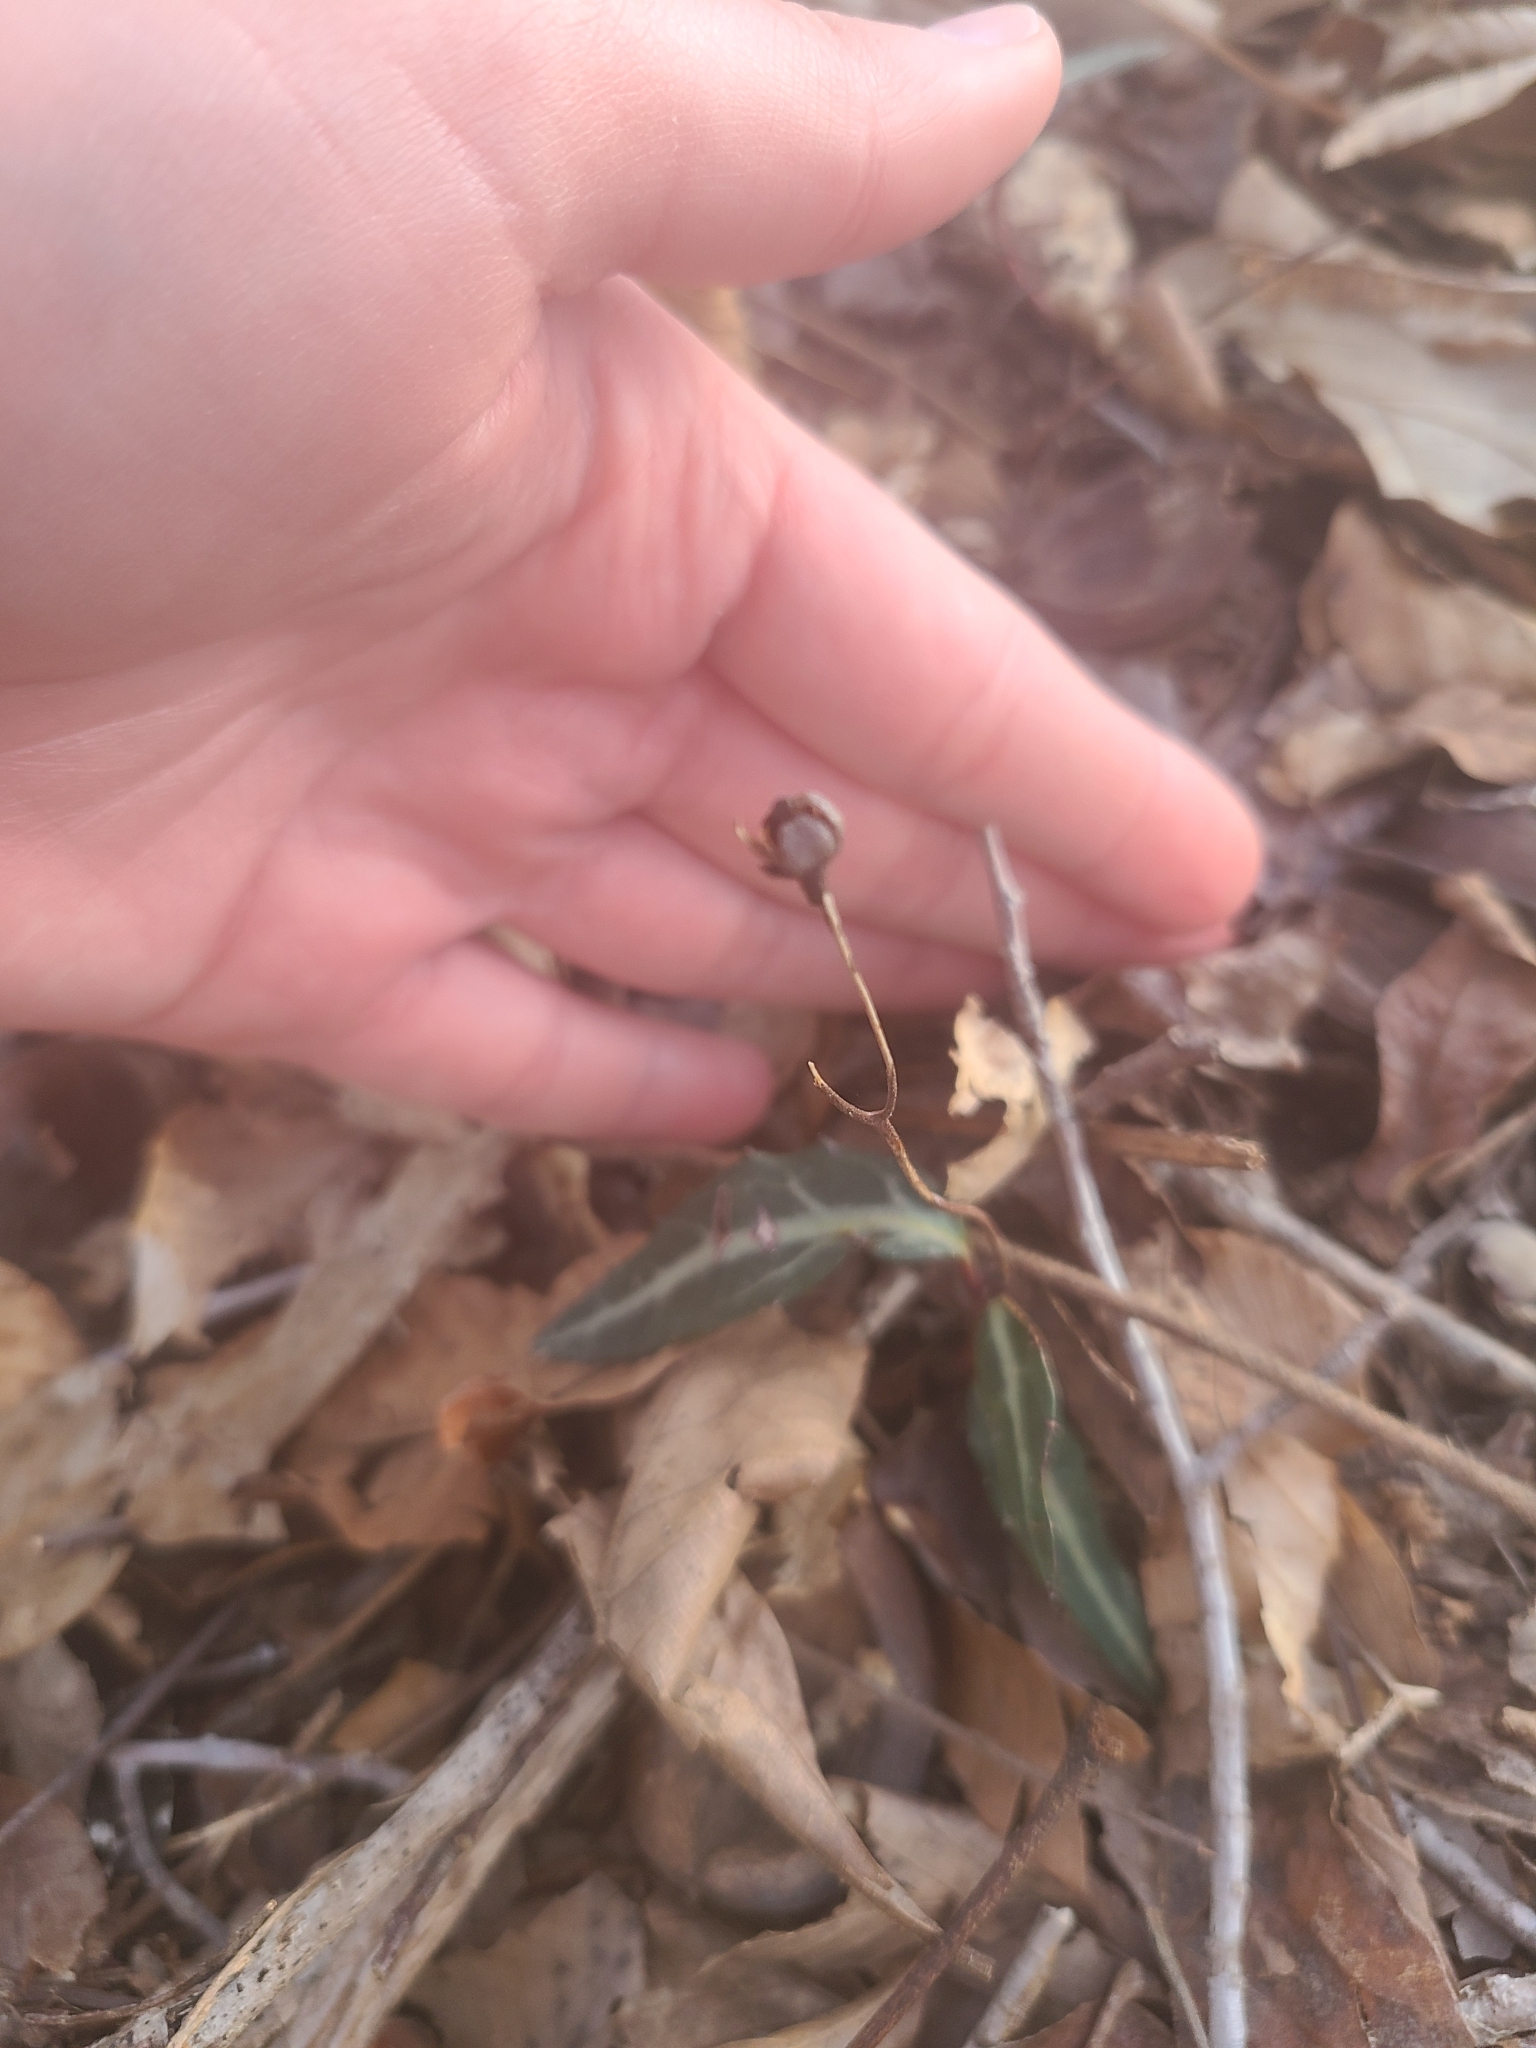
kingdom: Plantae
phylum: Tracheophyta
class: Magnoliopsida
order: Ericales
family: Ericaceae
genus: Chimaphila
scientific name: Chimaphila maculata
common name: Spotted pipsissewa
